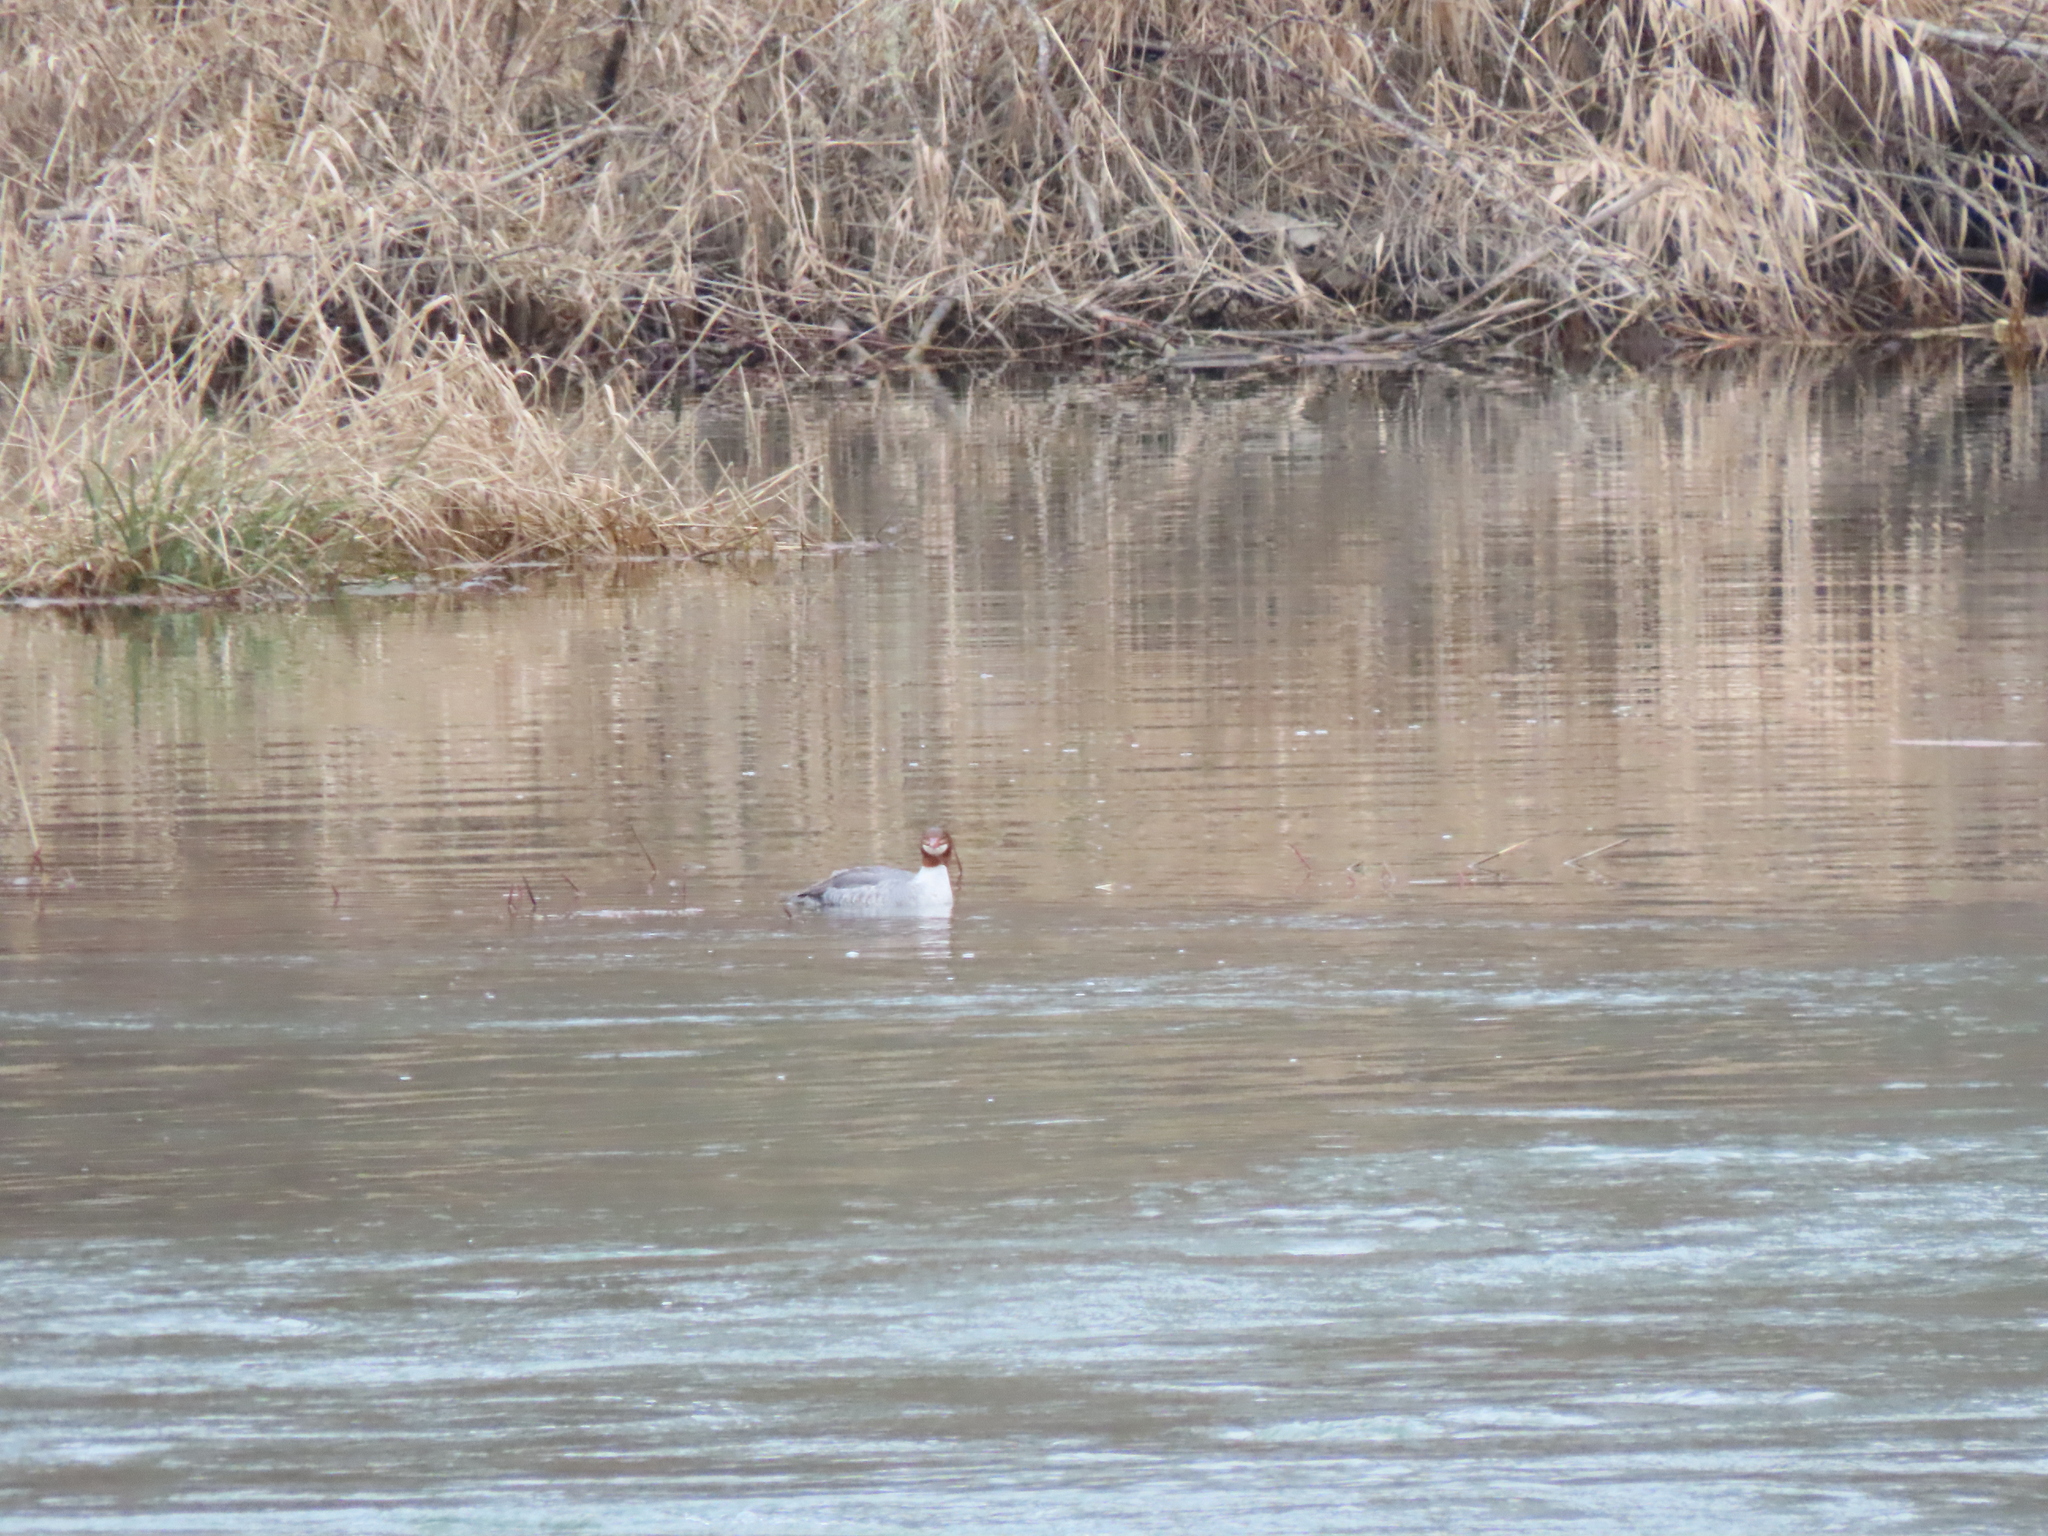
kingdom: Animalia
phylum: Chordata
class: Aves
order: Anseriformes
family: Anatidae
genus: Mergus
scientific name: Mergus merganser
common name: Common merganser
